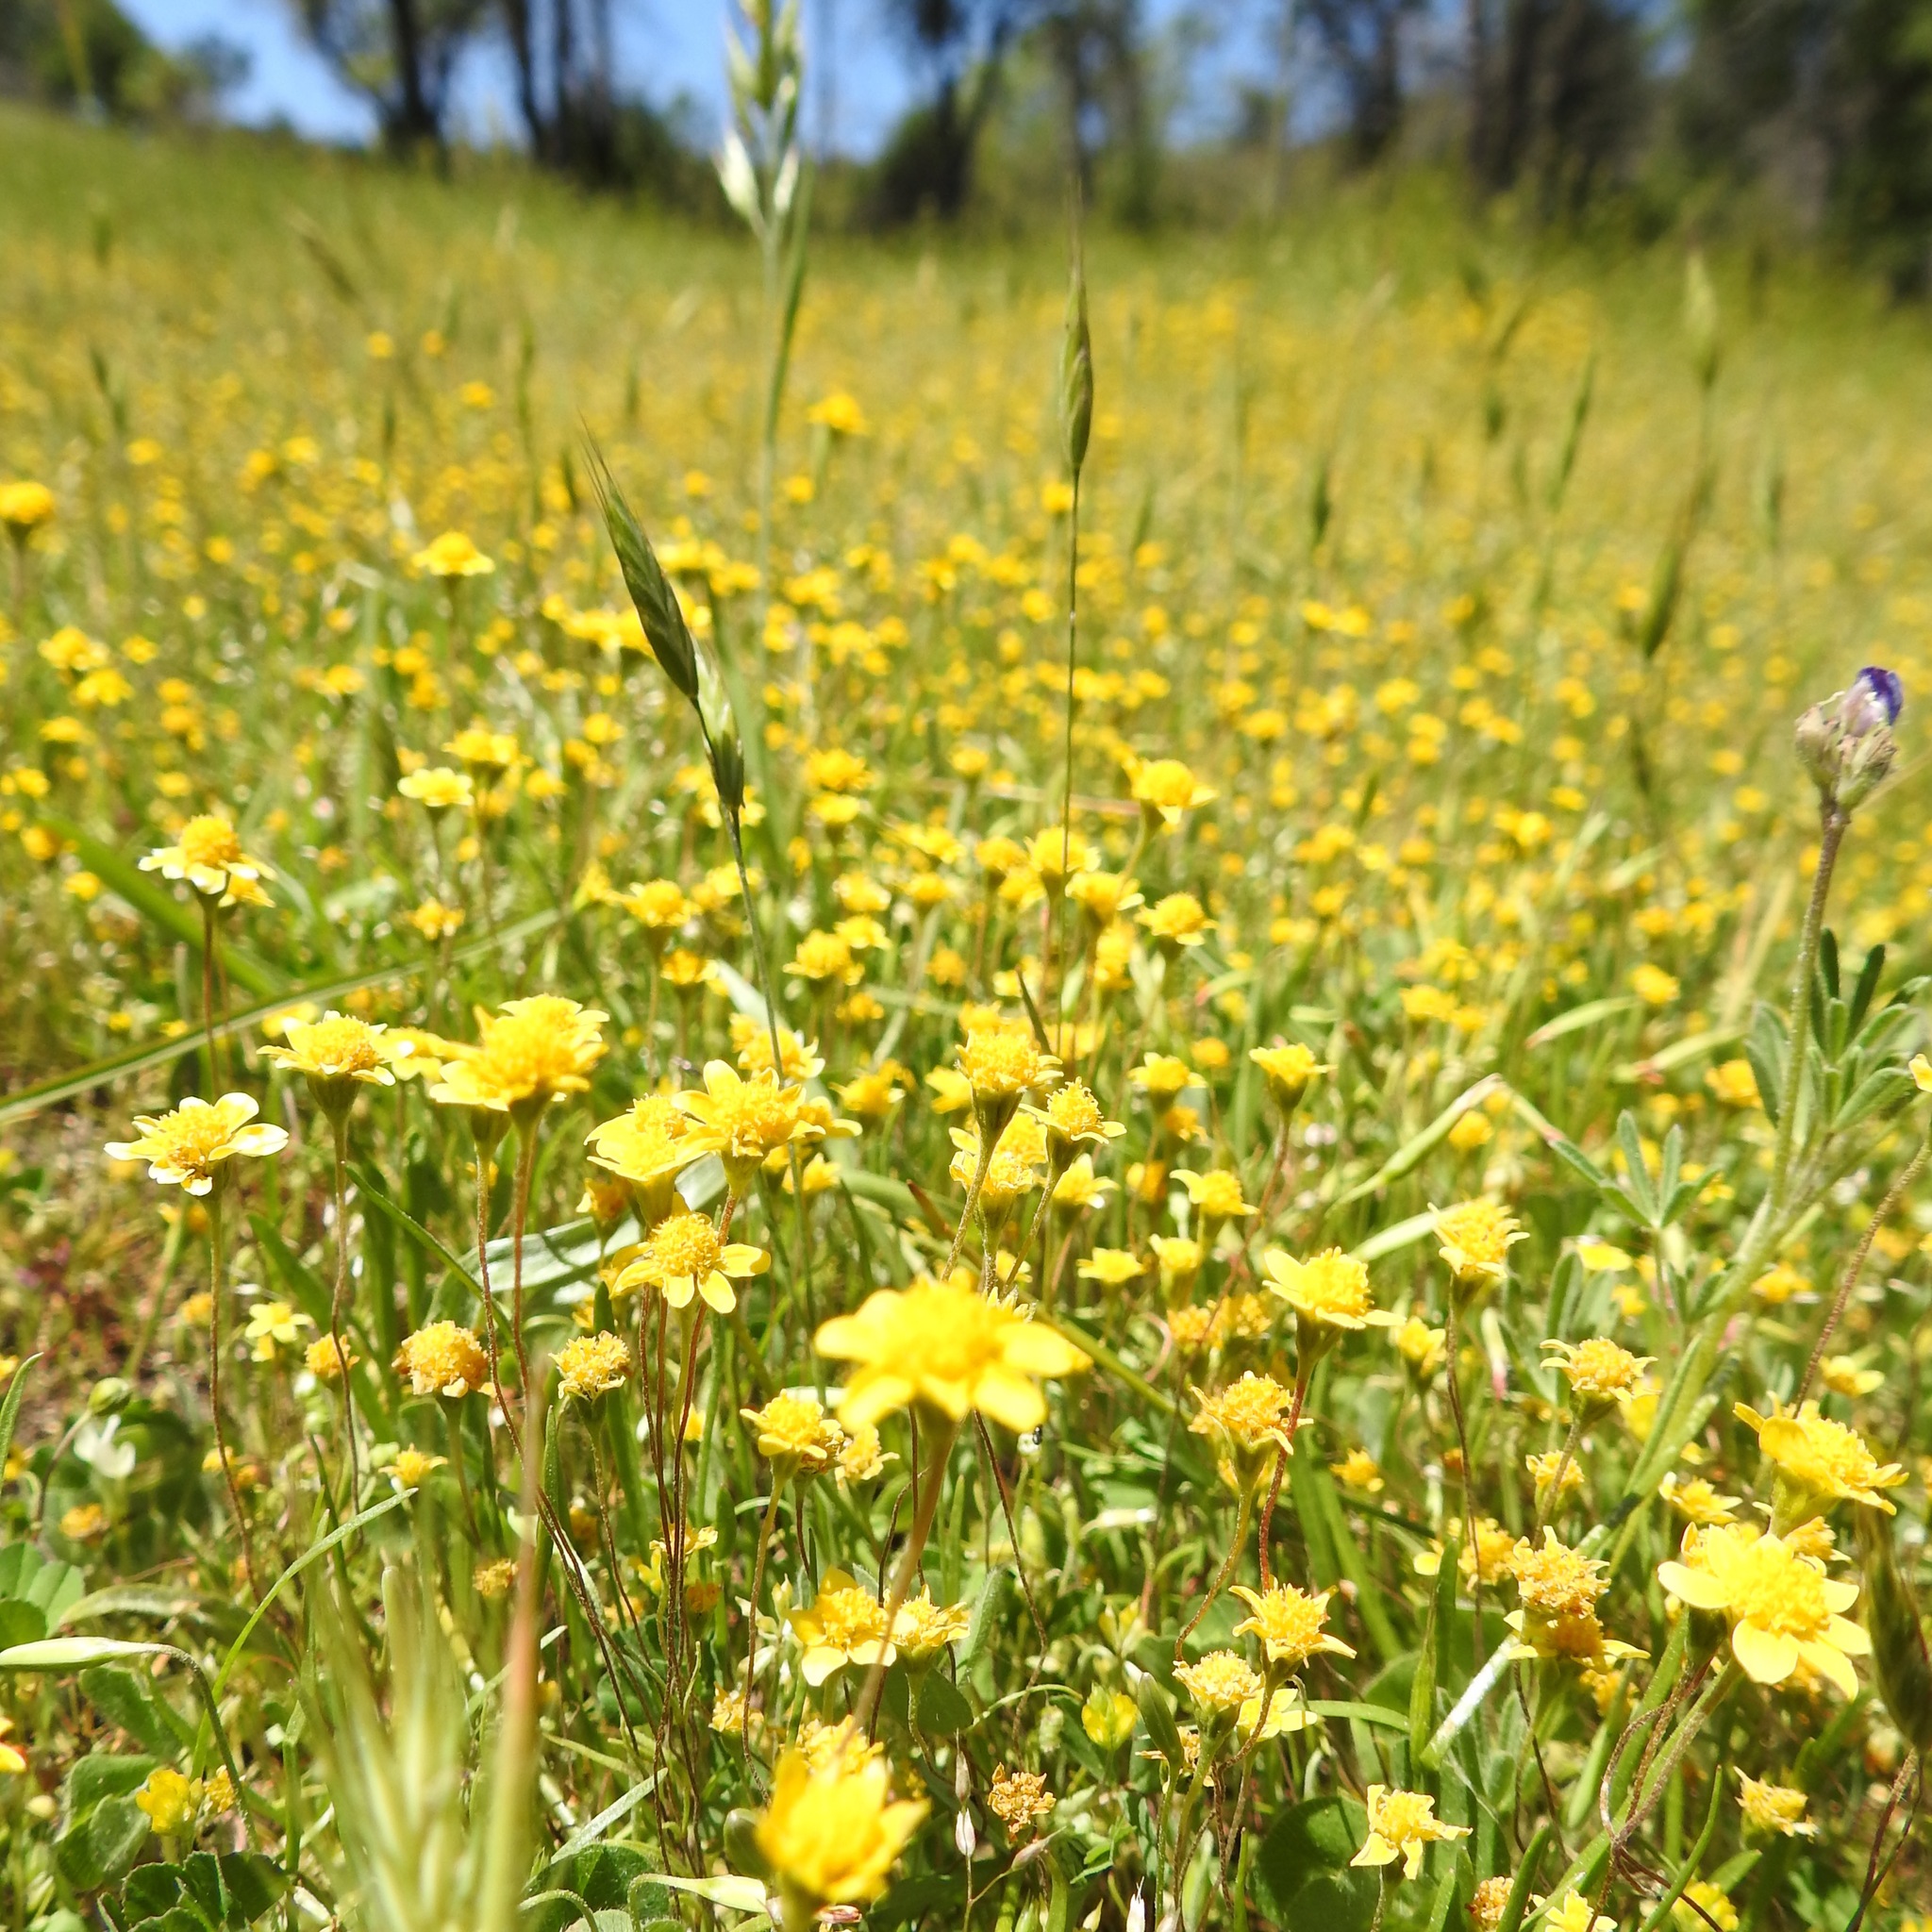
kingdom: Plantae
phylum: Tracheophyta
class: Magnoliopsida
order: Asterales
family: Asteraceae
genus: Lasthenia
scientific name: Lasthenia californica
